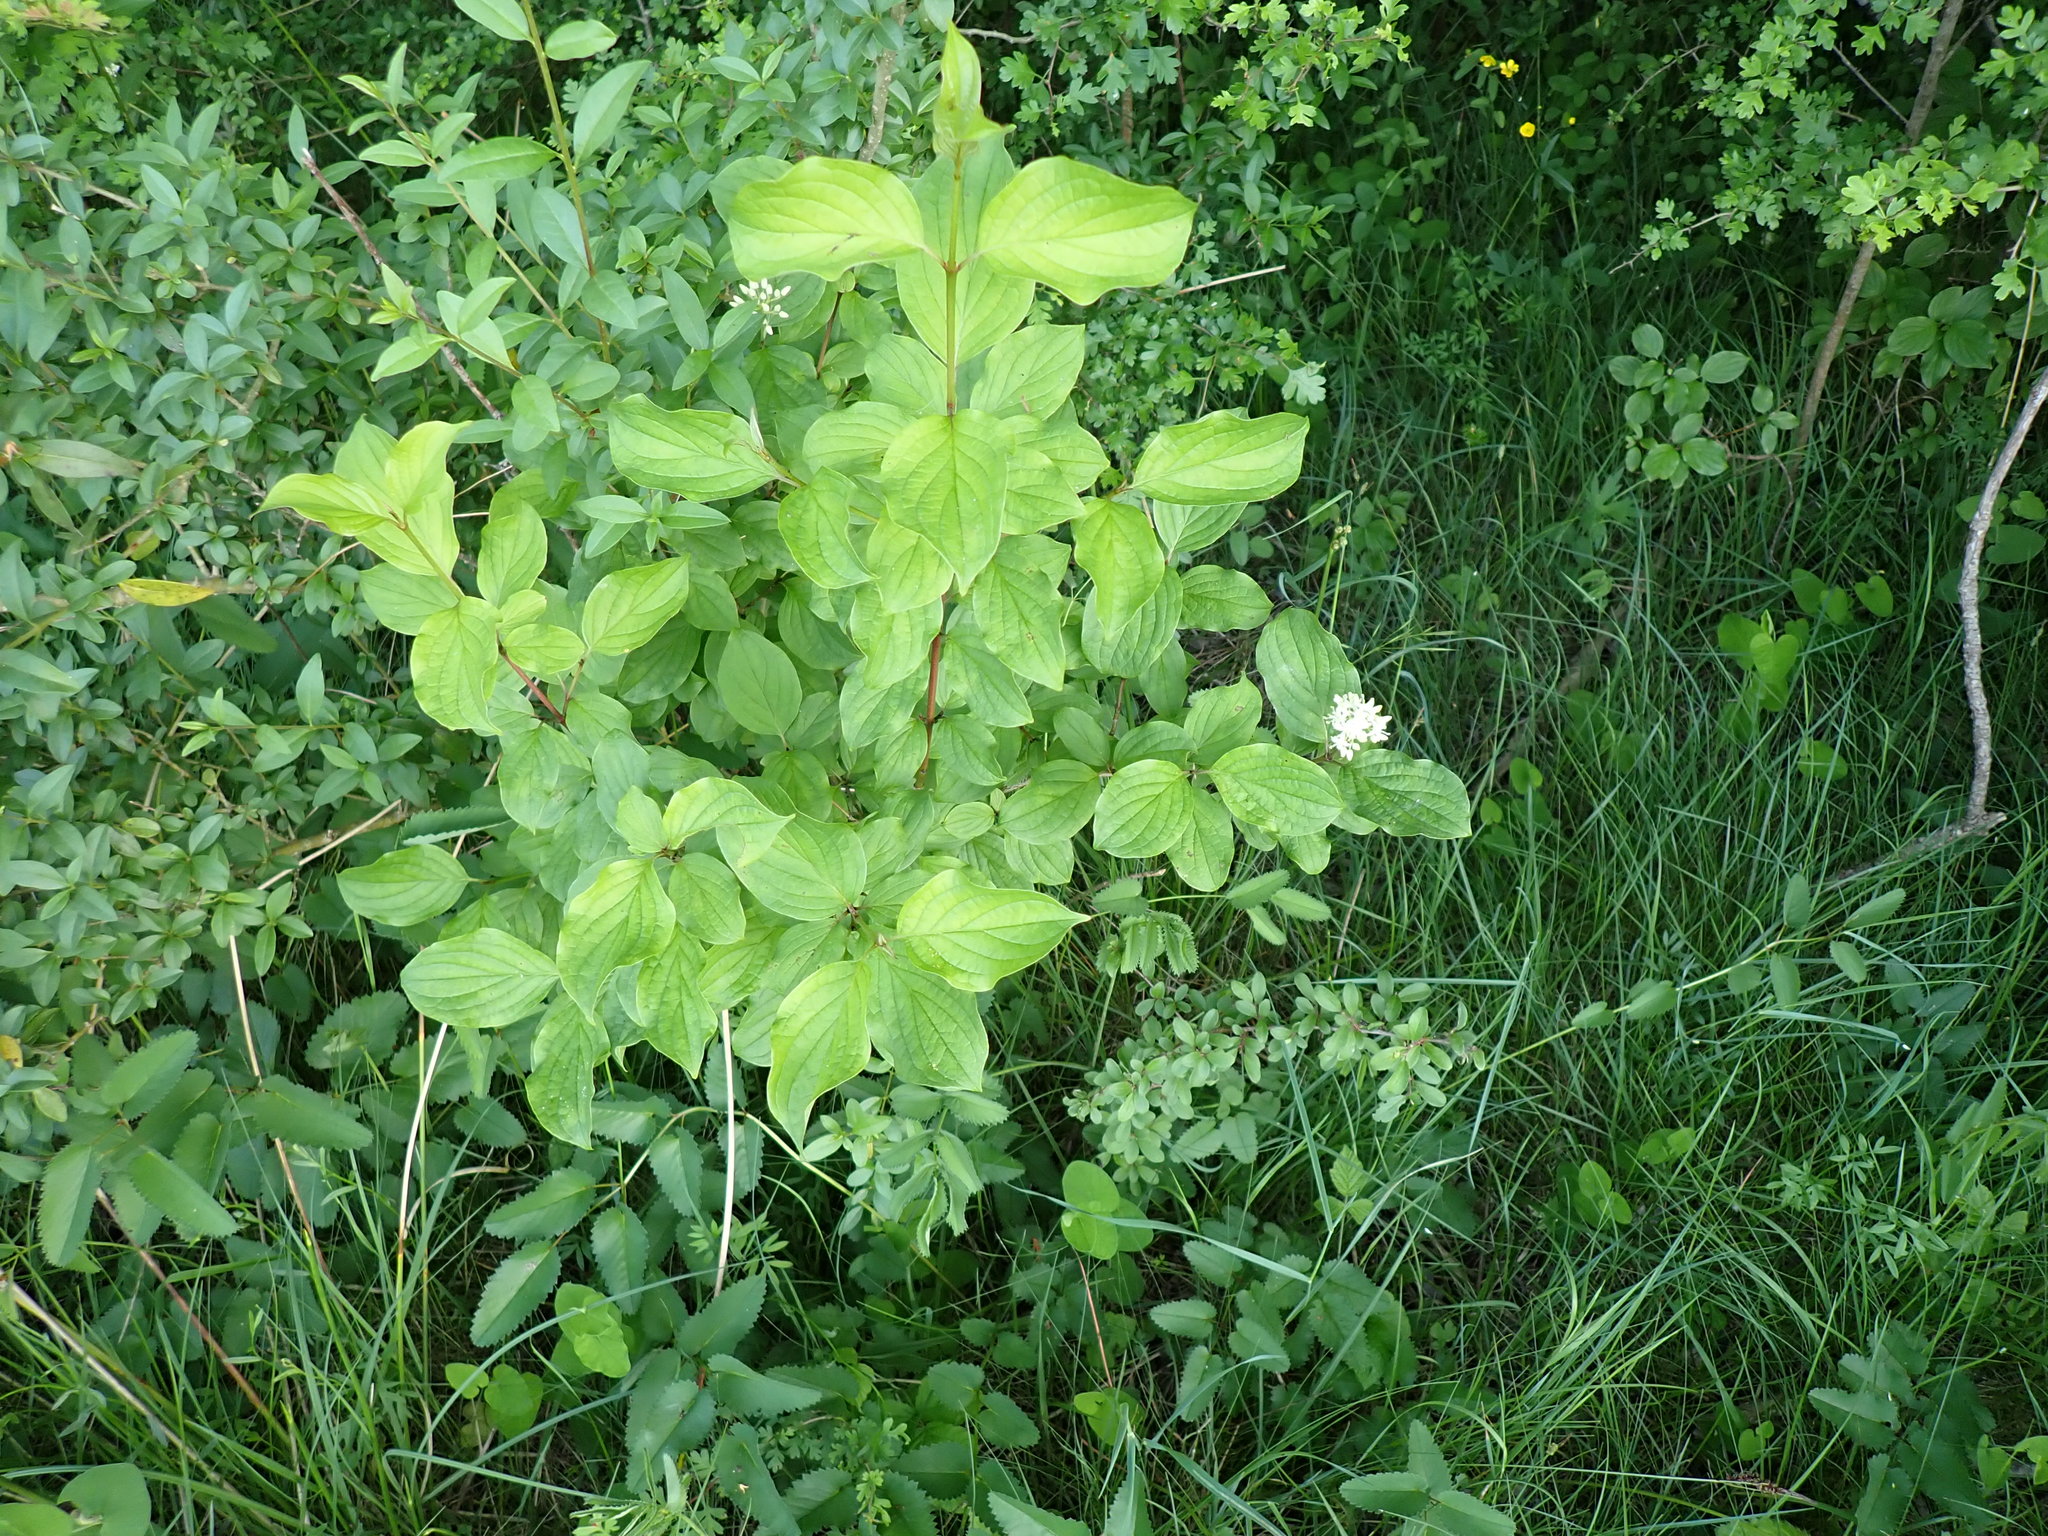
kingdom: Plantae
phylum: Tracheophyta
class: Magnoliopsida
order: Cornales
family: Cornaceae
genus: Cornus
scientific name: Cornus sanguinea
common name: Dogwood
